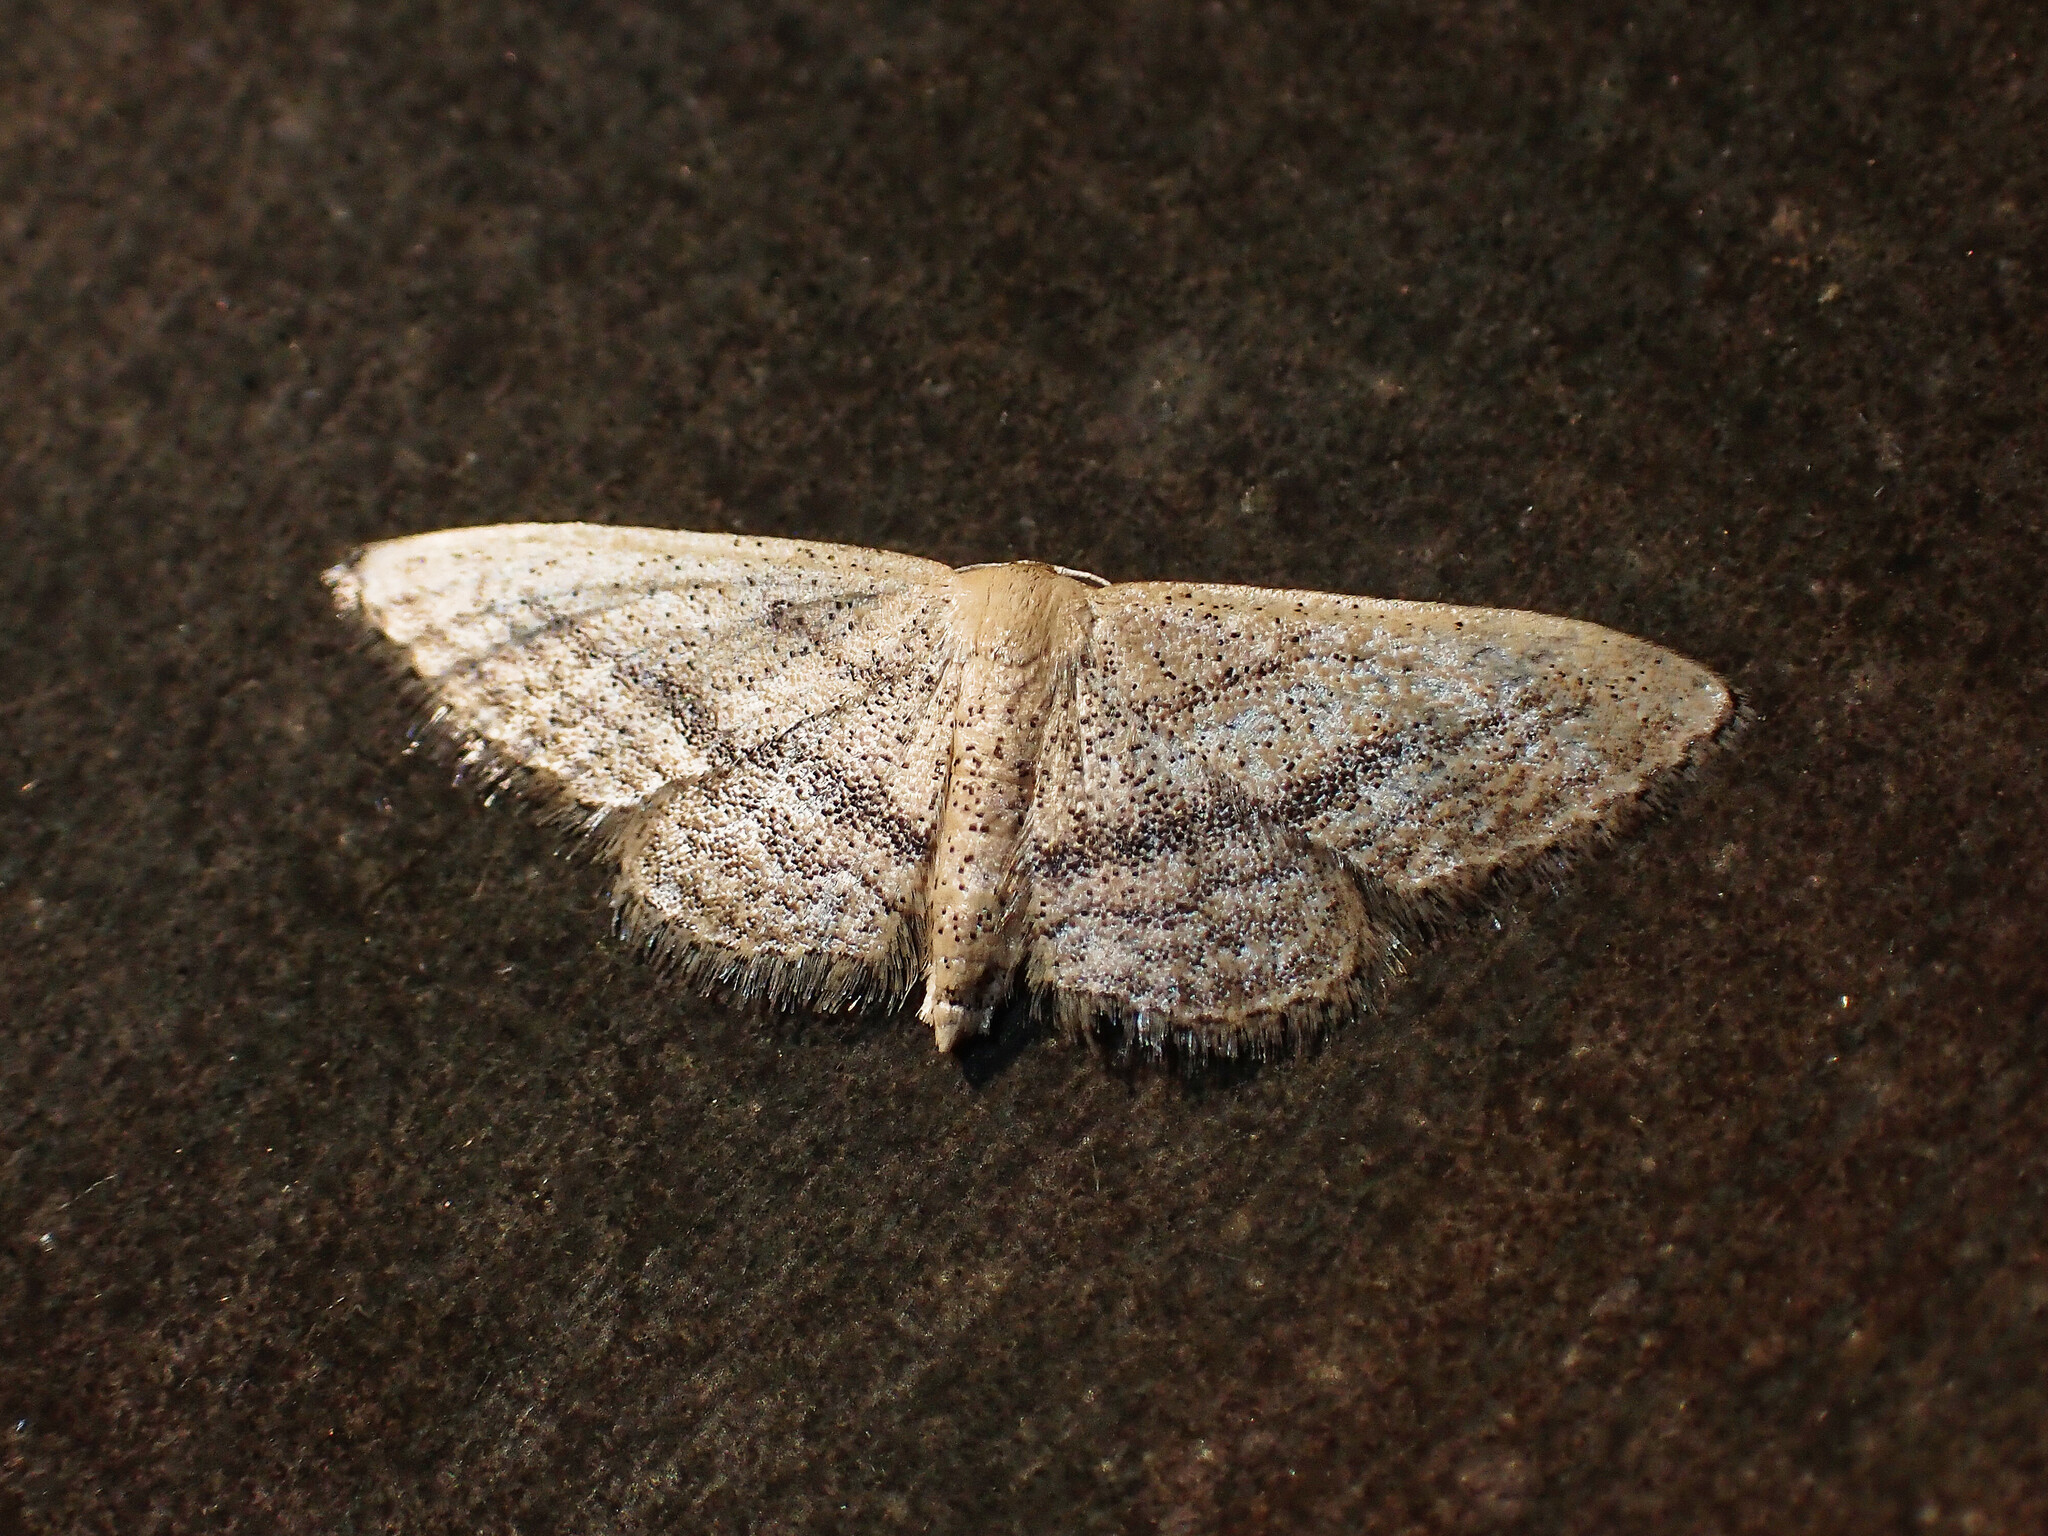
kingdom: Animalia
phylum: Arthropoda
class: Insecta
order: Lepidoptera
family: Geometridae
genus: Idaea
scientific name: Idaea mediaria
